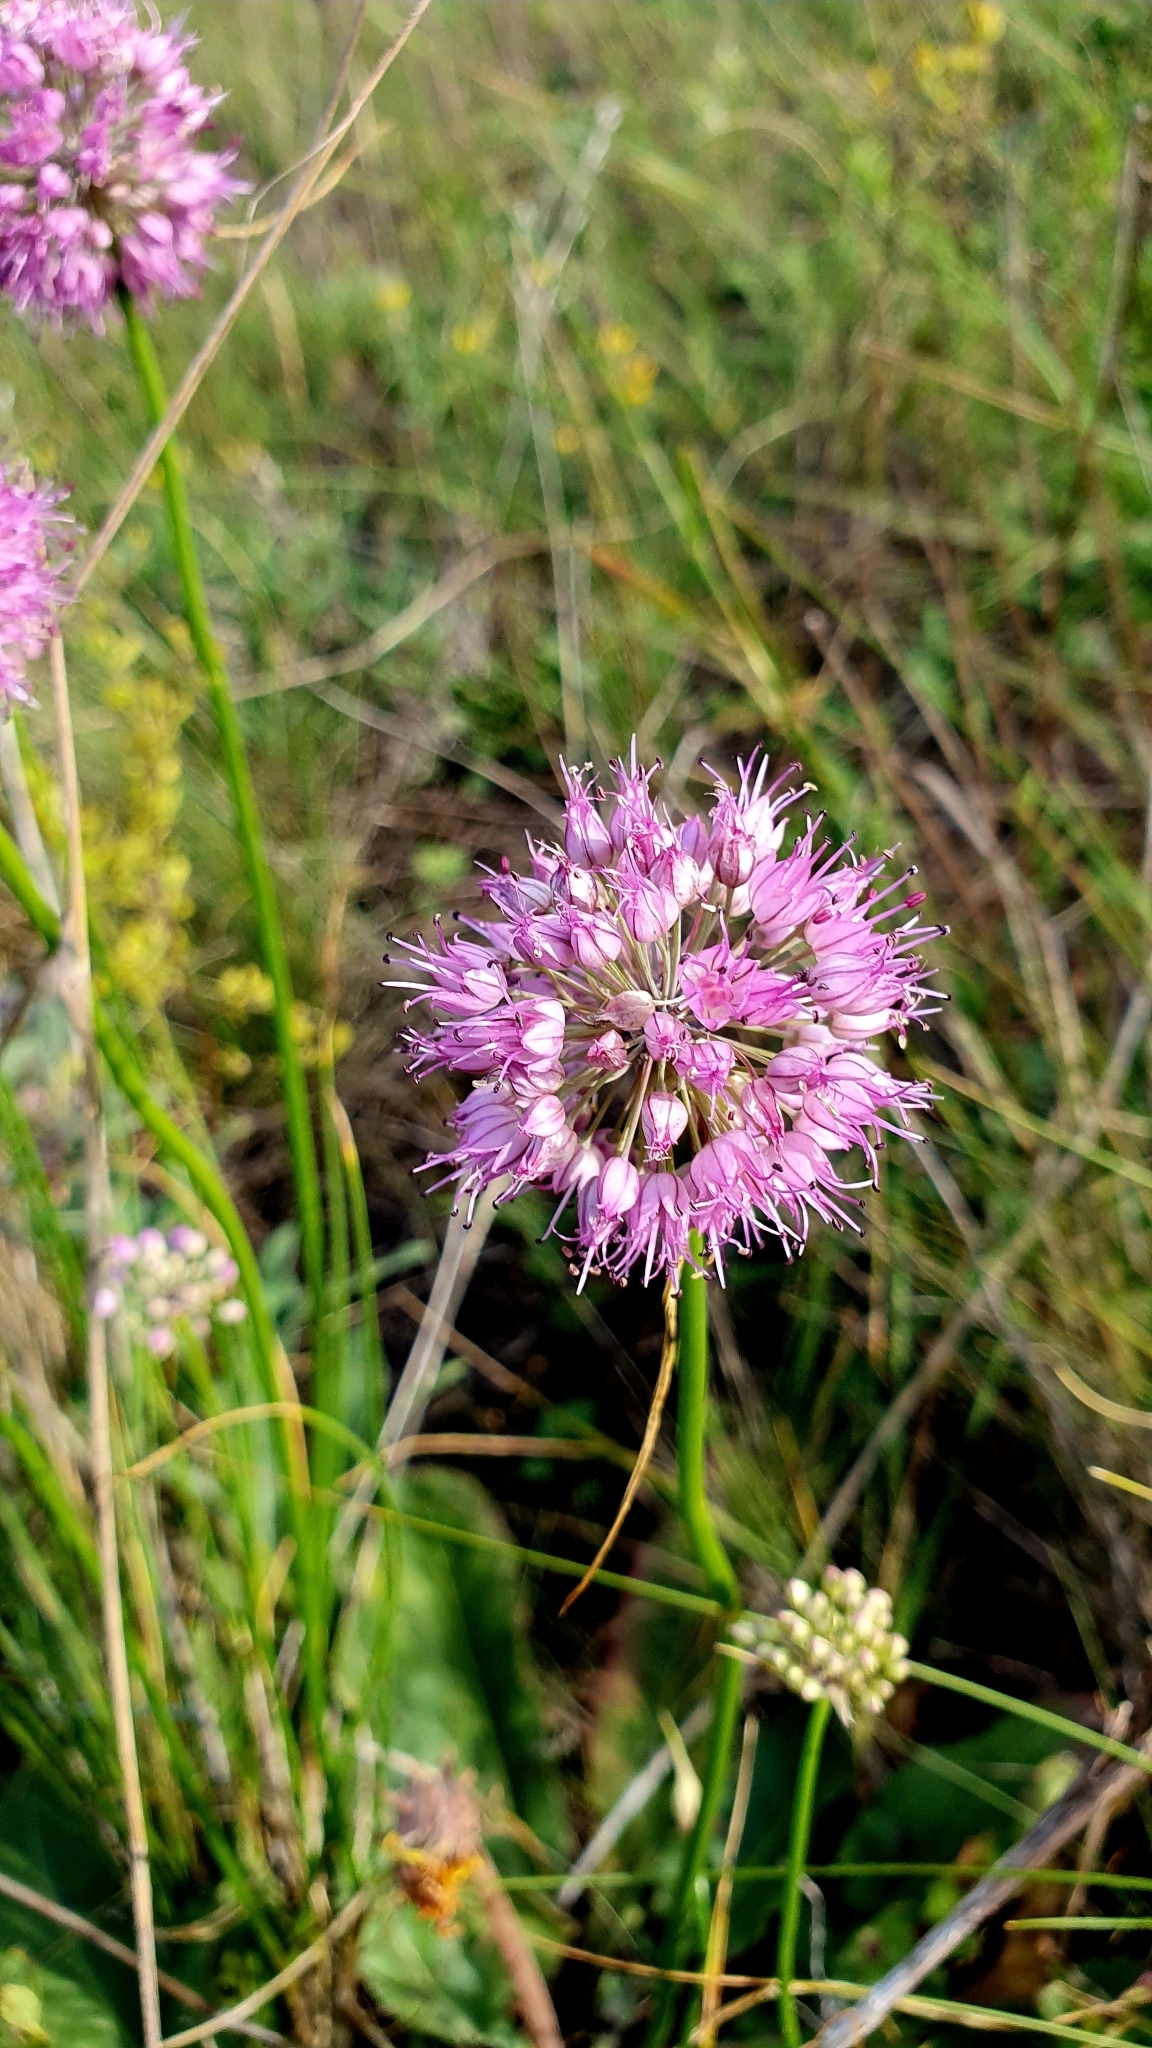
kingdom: Plantae
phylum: Tracheophyta
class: Liliopsida
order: Asparagales
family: Amaryllidaceae
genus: Allium
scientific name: Allium cretaceum
